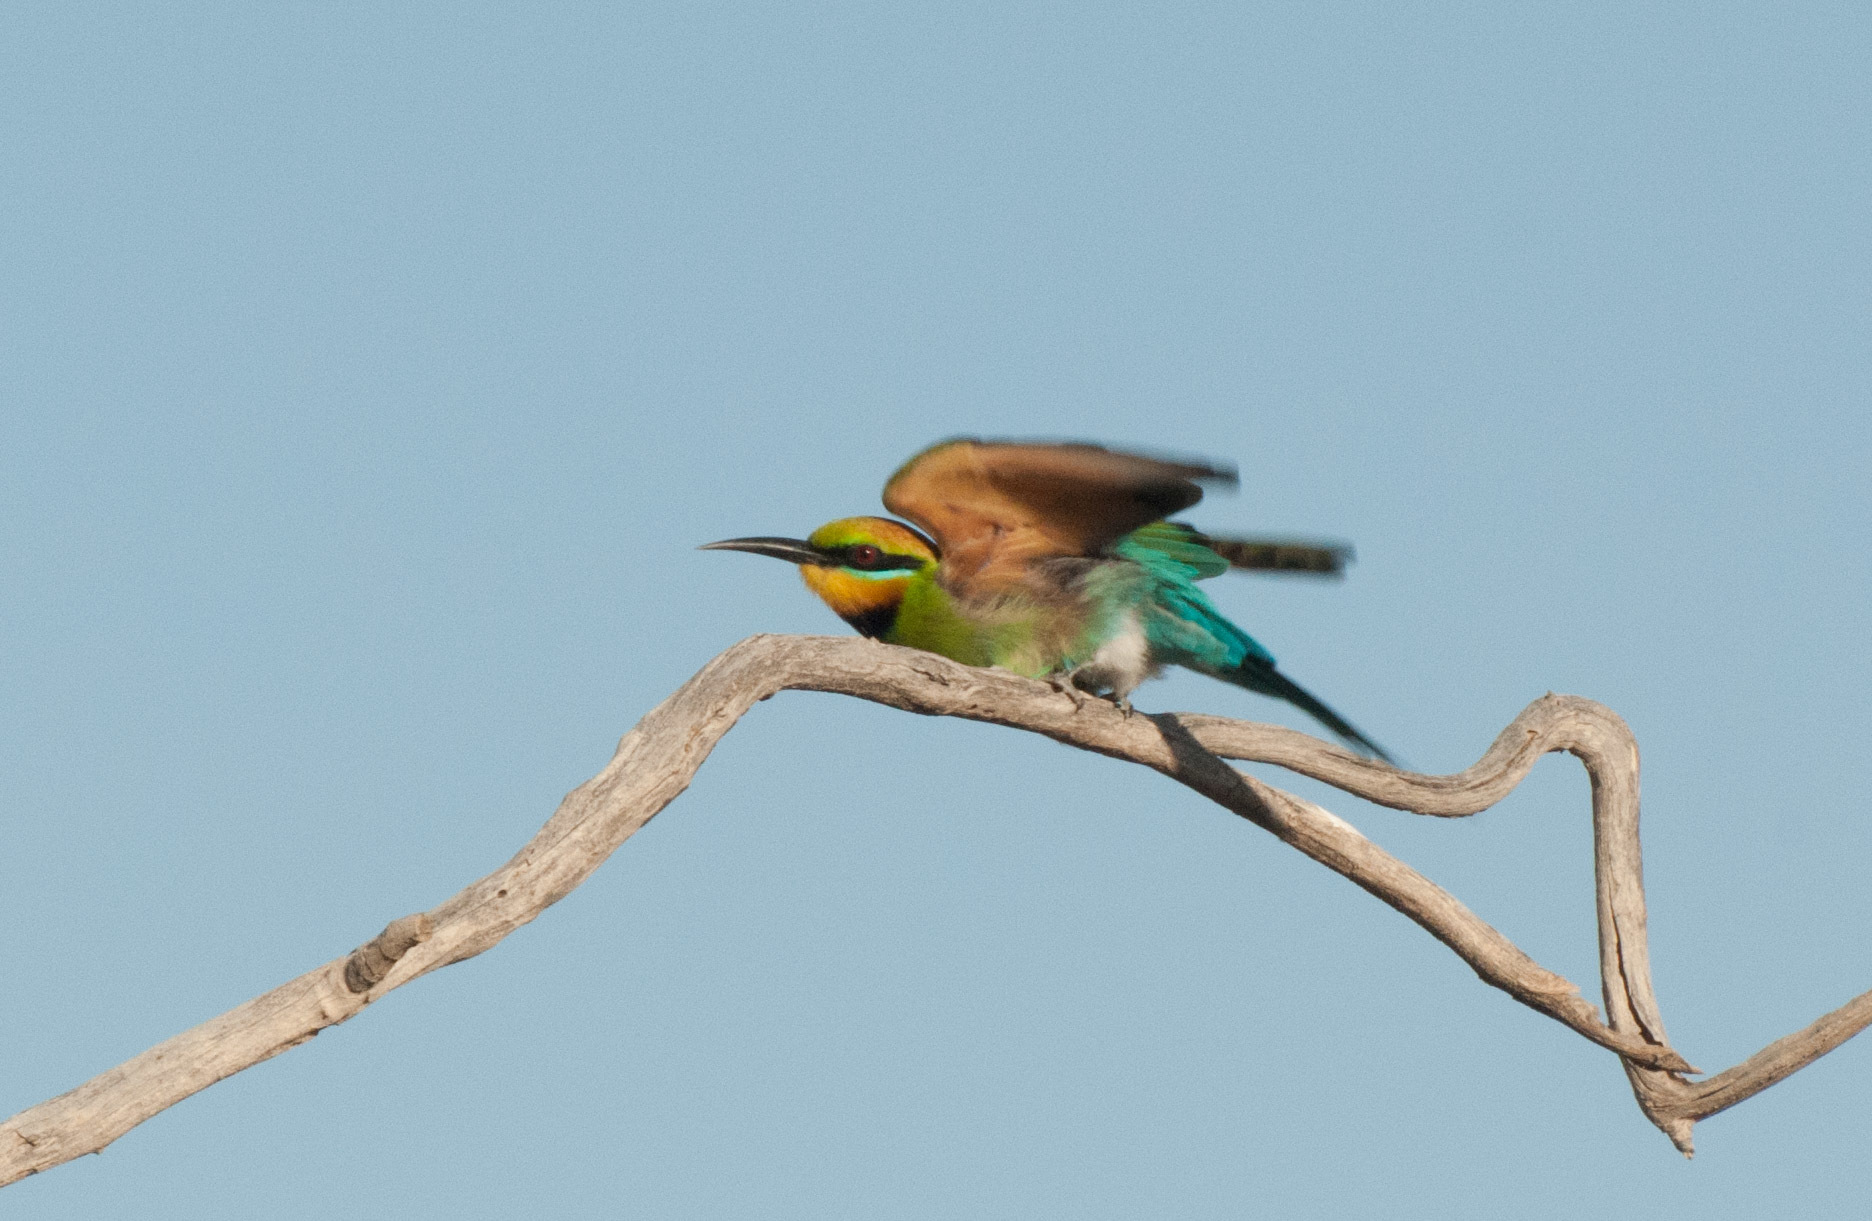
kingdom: Animalia
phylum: Chordata
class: Aves
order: Coraciiformes
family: Meropidae
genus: Merops
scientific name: Merops ornatus
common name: Rainbow bee-eater
